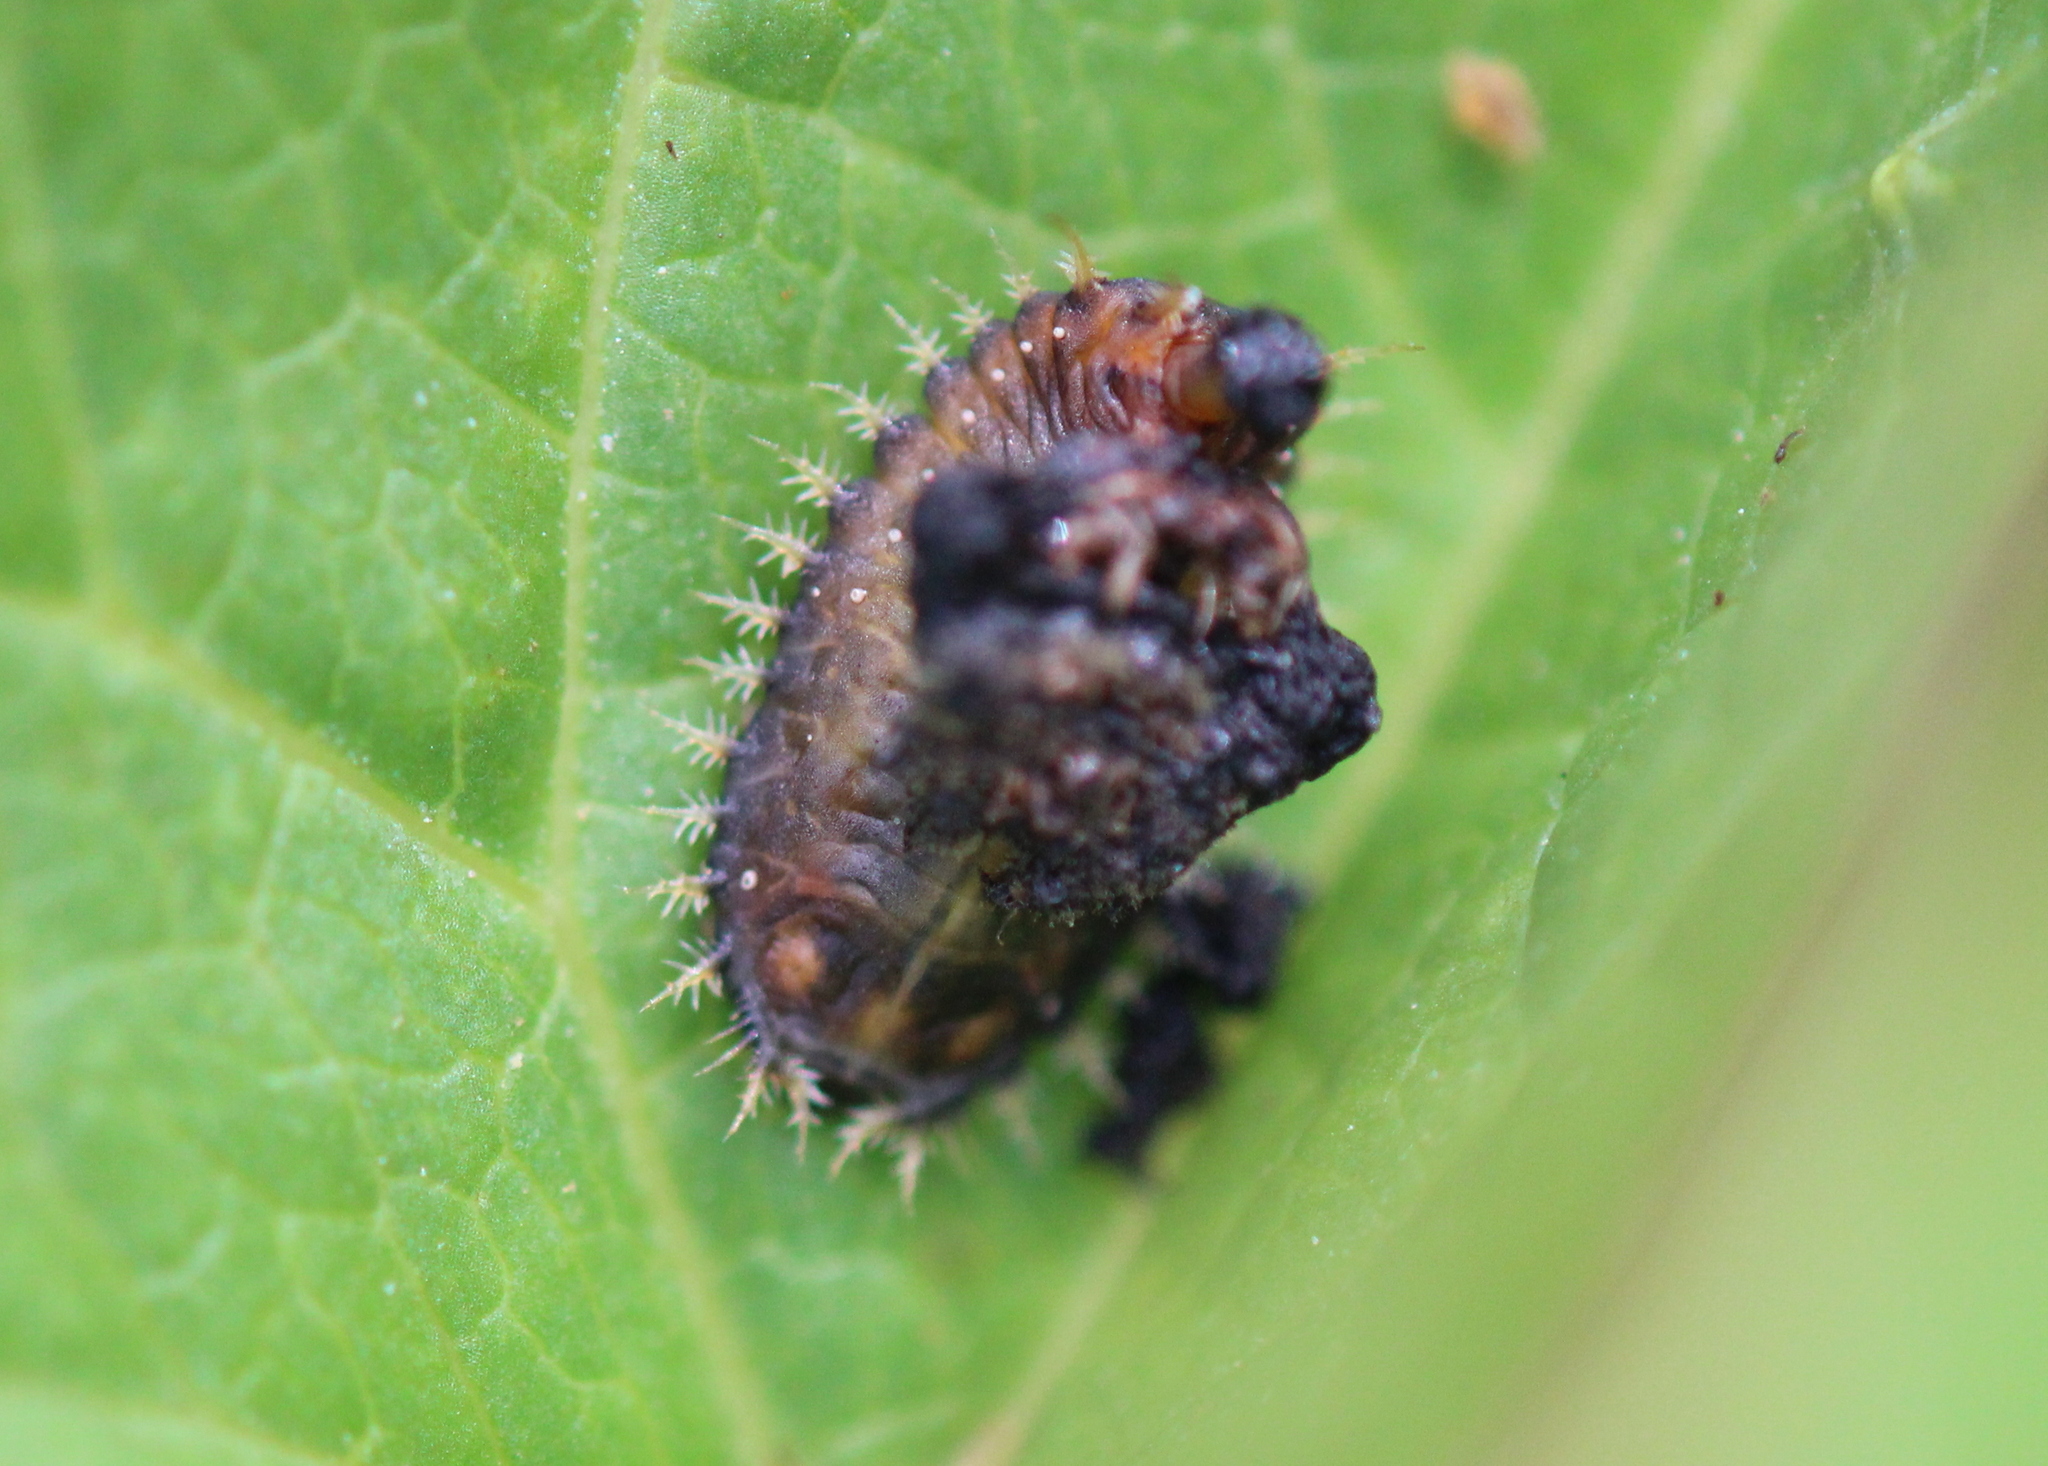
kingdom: Animalia
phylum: Arthropoda
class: Insecta
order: Coleoptera
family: Chrysomelidae
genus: Charidotella
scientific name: Charidotella sexpunctata
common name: Golden tortoise beetle
